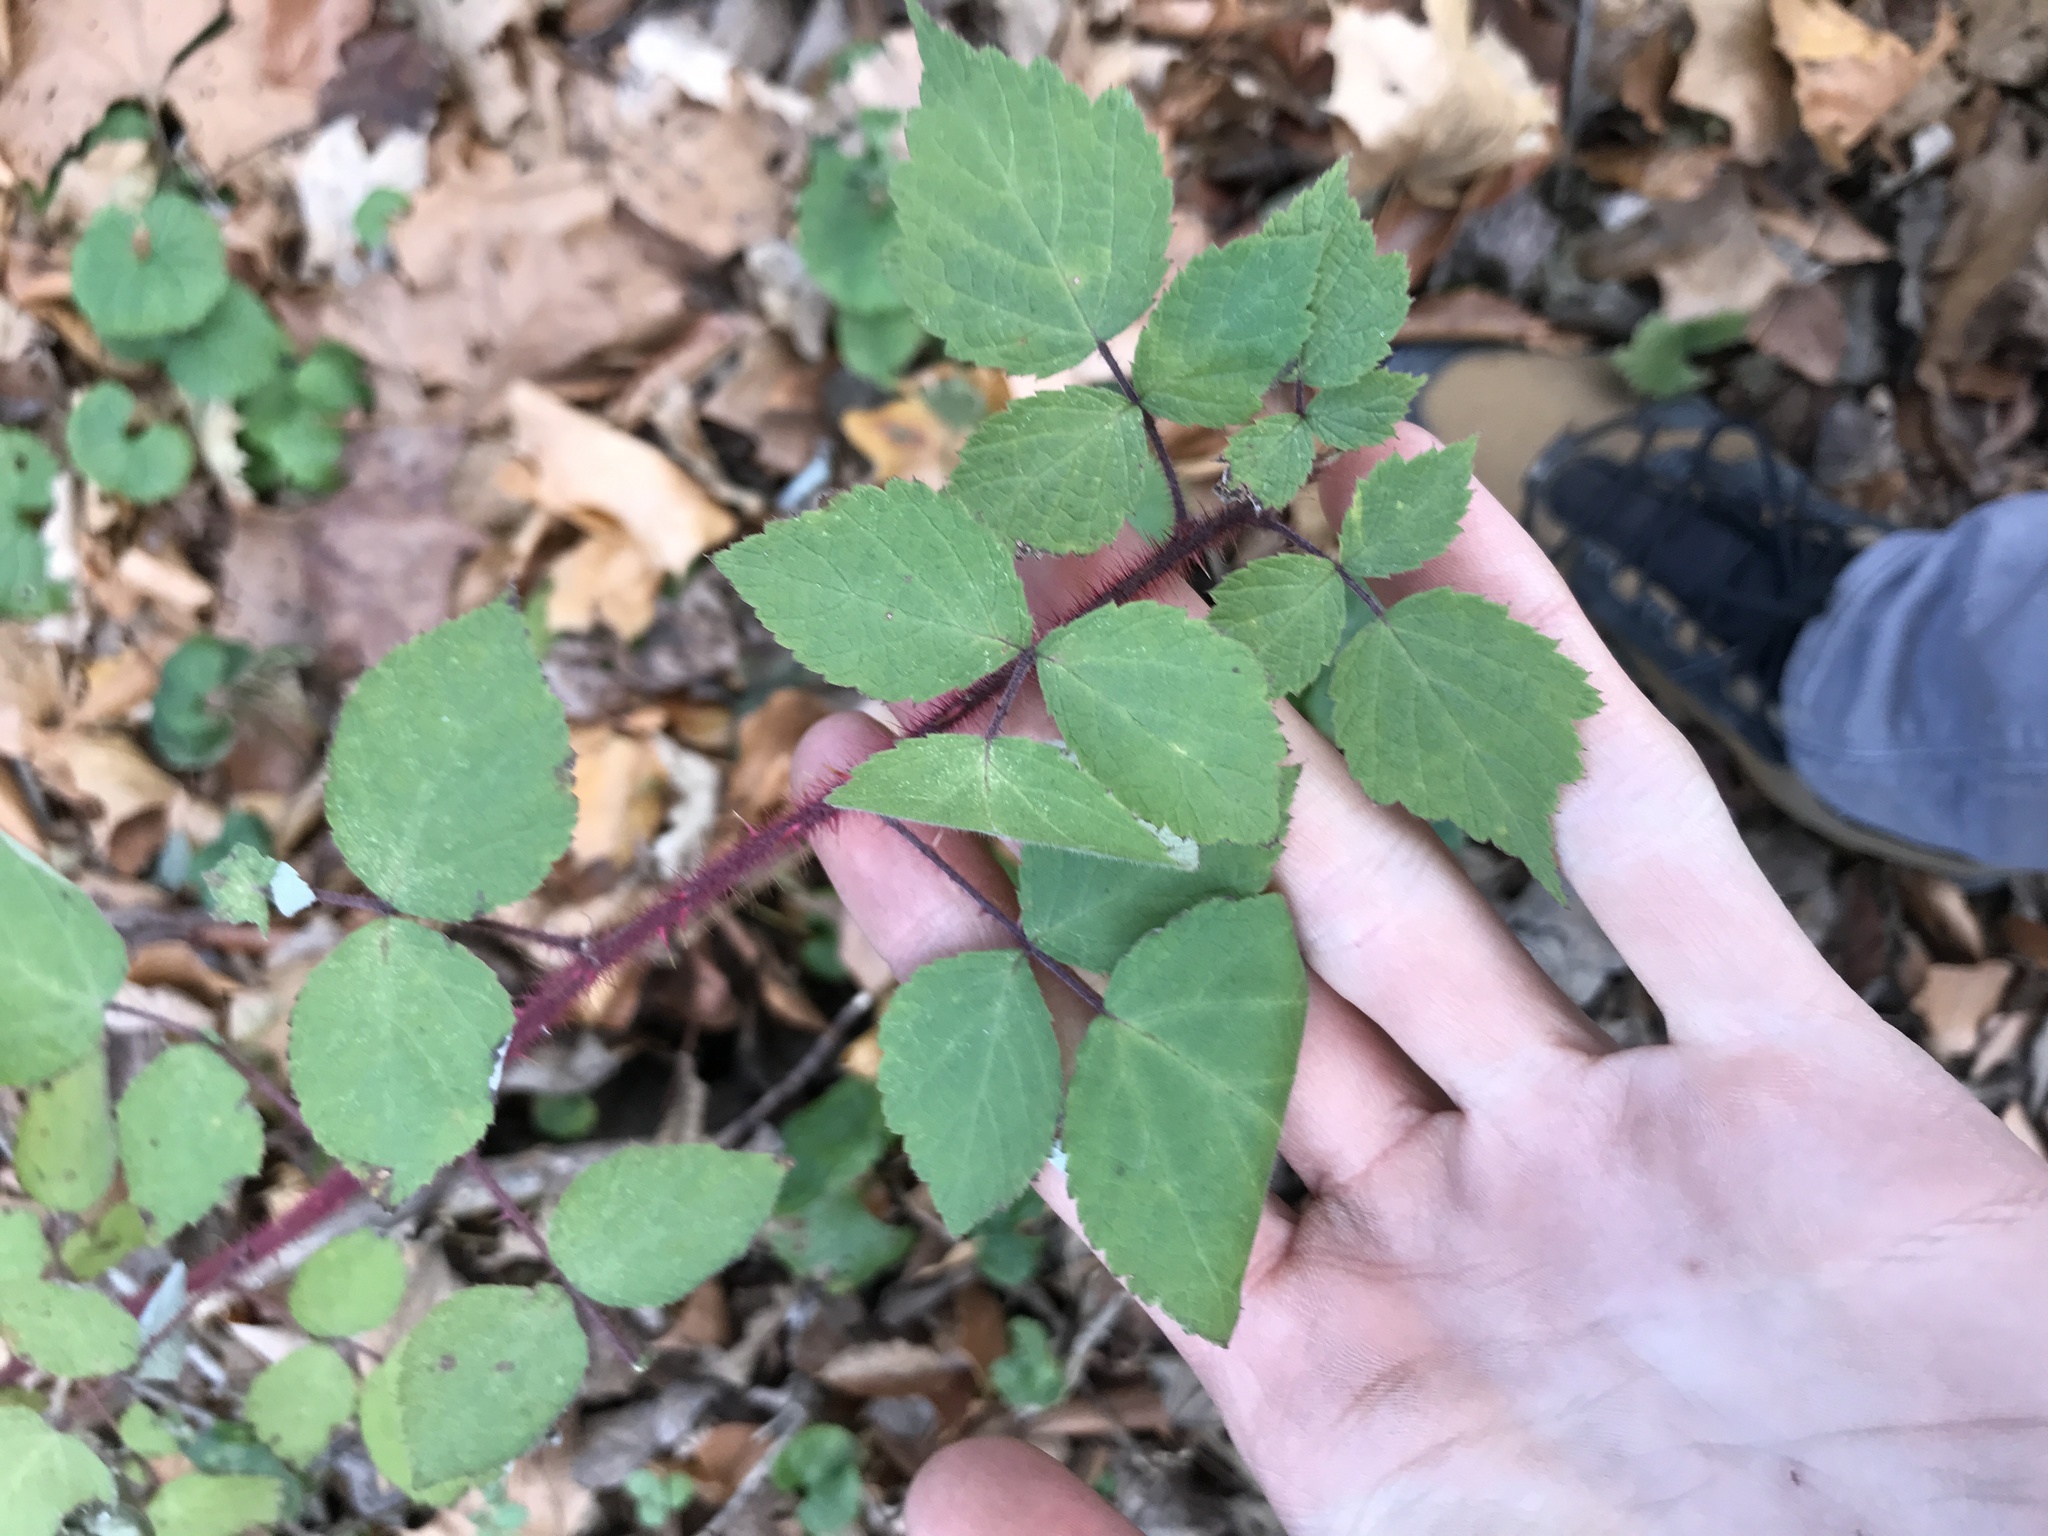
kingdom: Plantae
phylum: Tracheophyta
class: Magnoliopsida
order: Rosales
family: Rosaceae
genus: Rubus
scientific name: Rubus phoenicolasius
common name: Japanese wineberry
